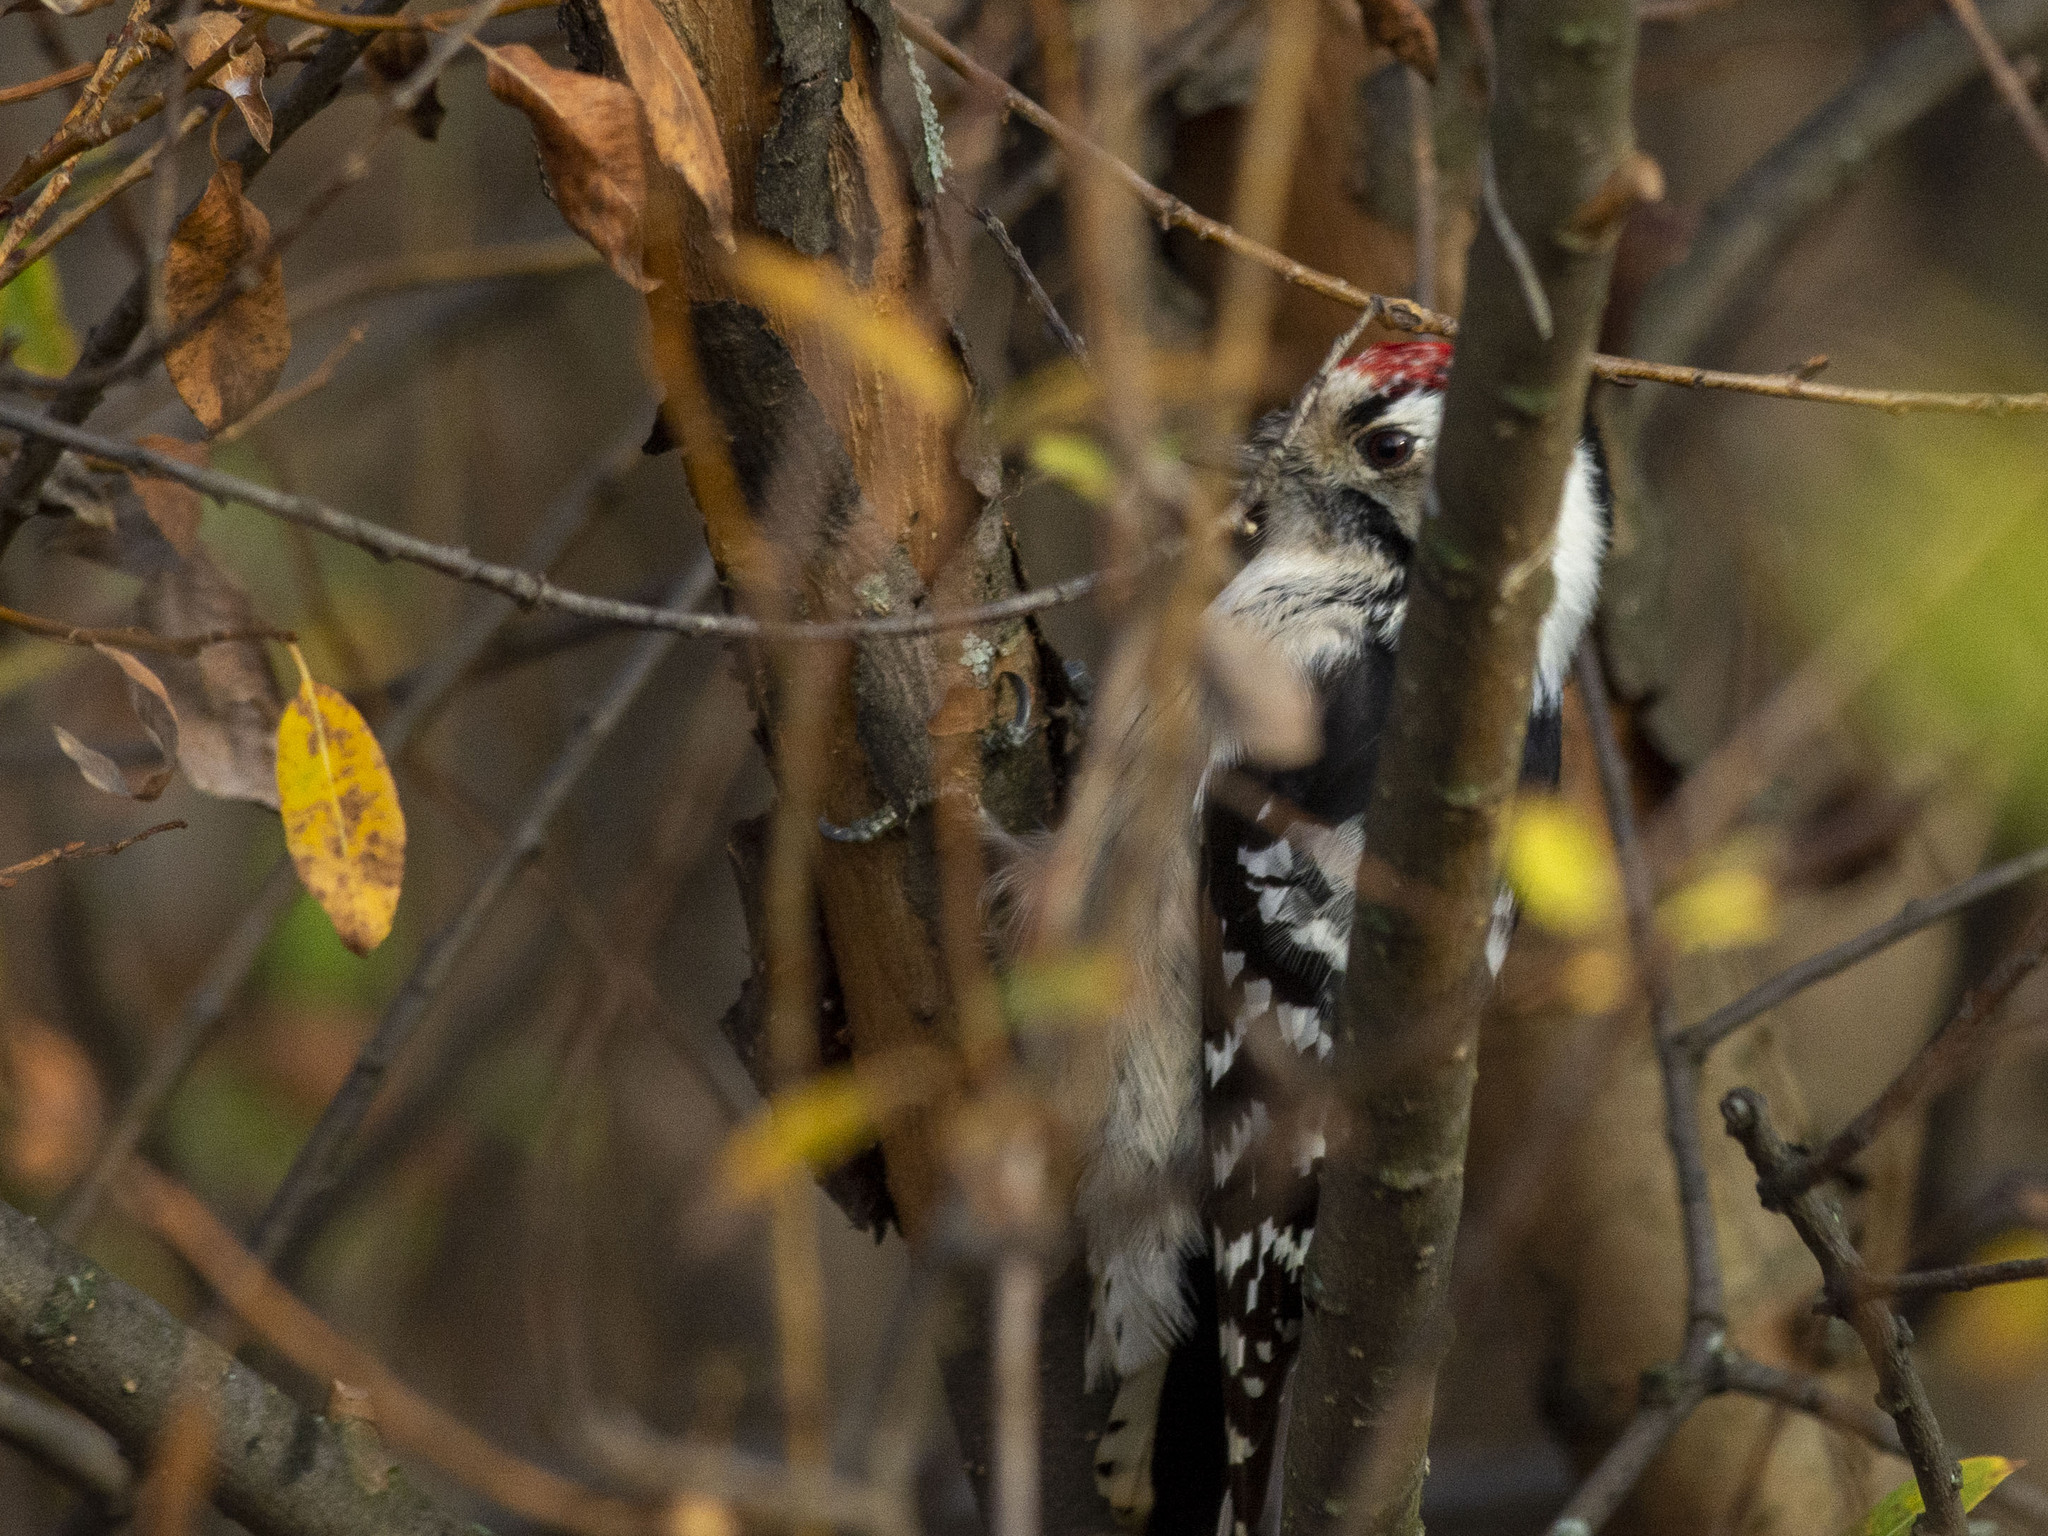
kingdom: Animalia
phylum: Chordata
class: Aves
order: Piciformes
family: Picidae
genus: Dryobates
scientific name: Dryobates minor
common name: Lesser spotted woodpecker
